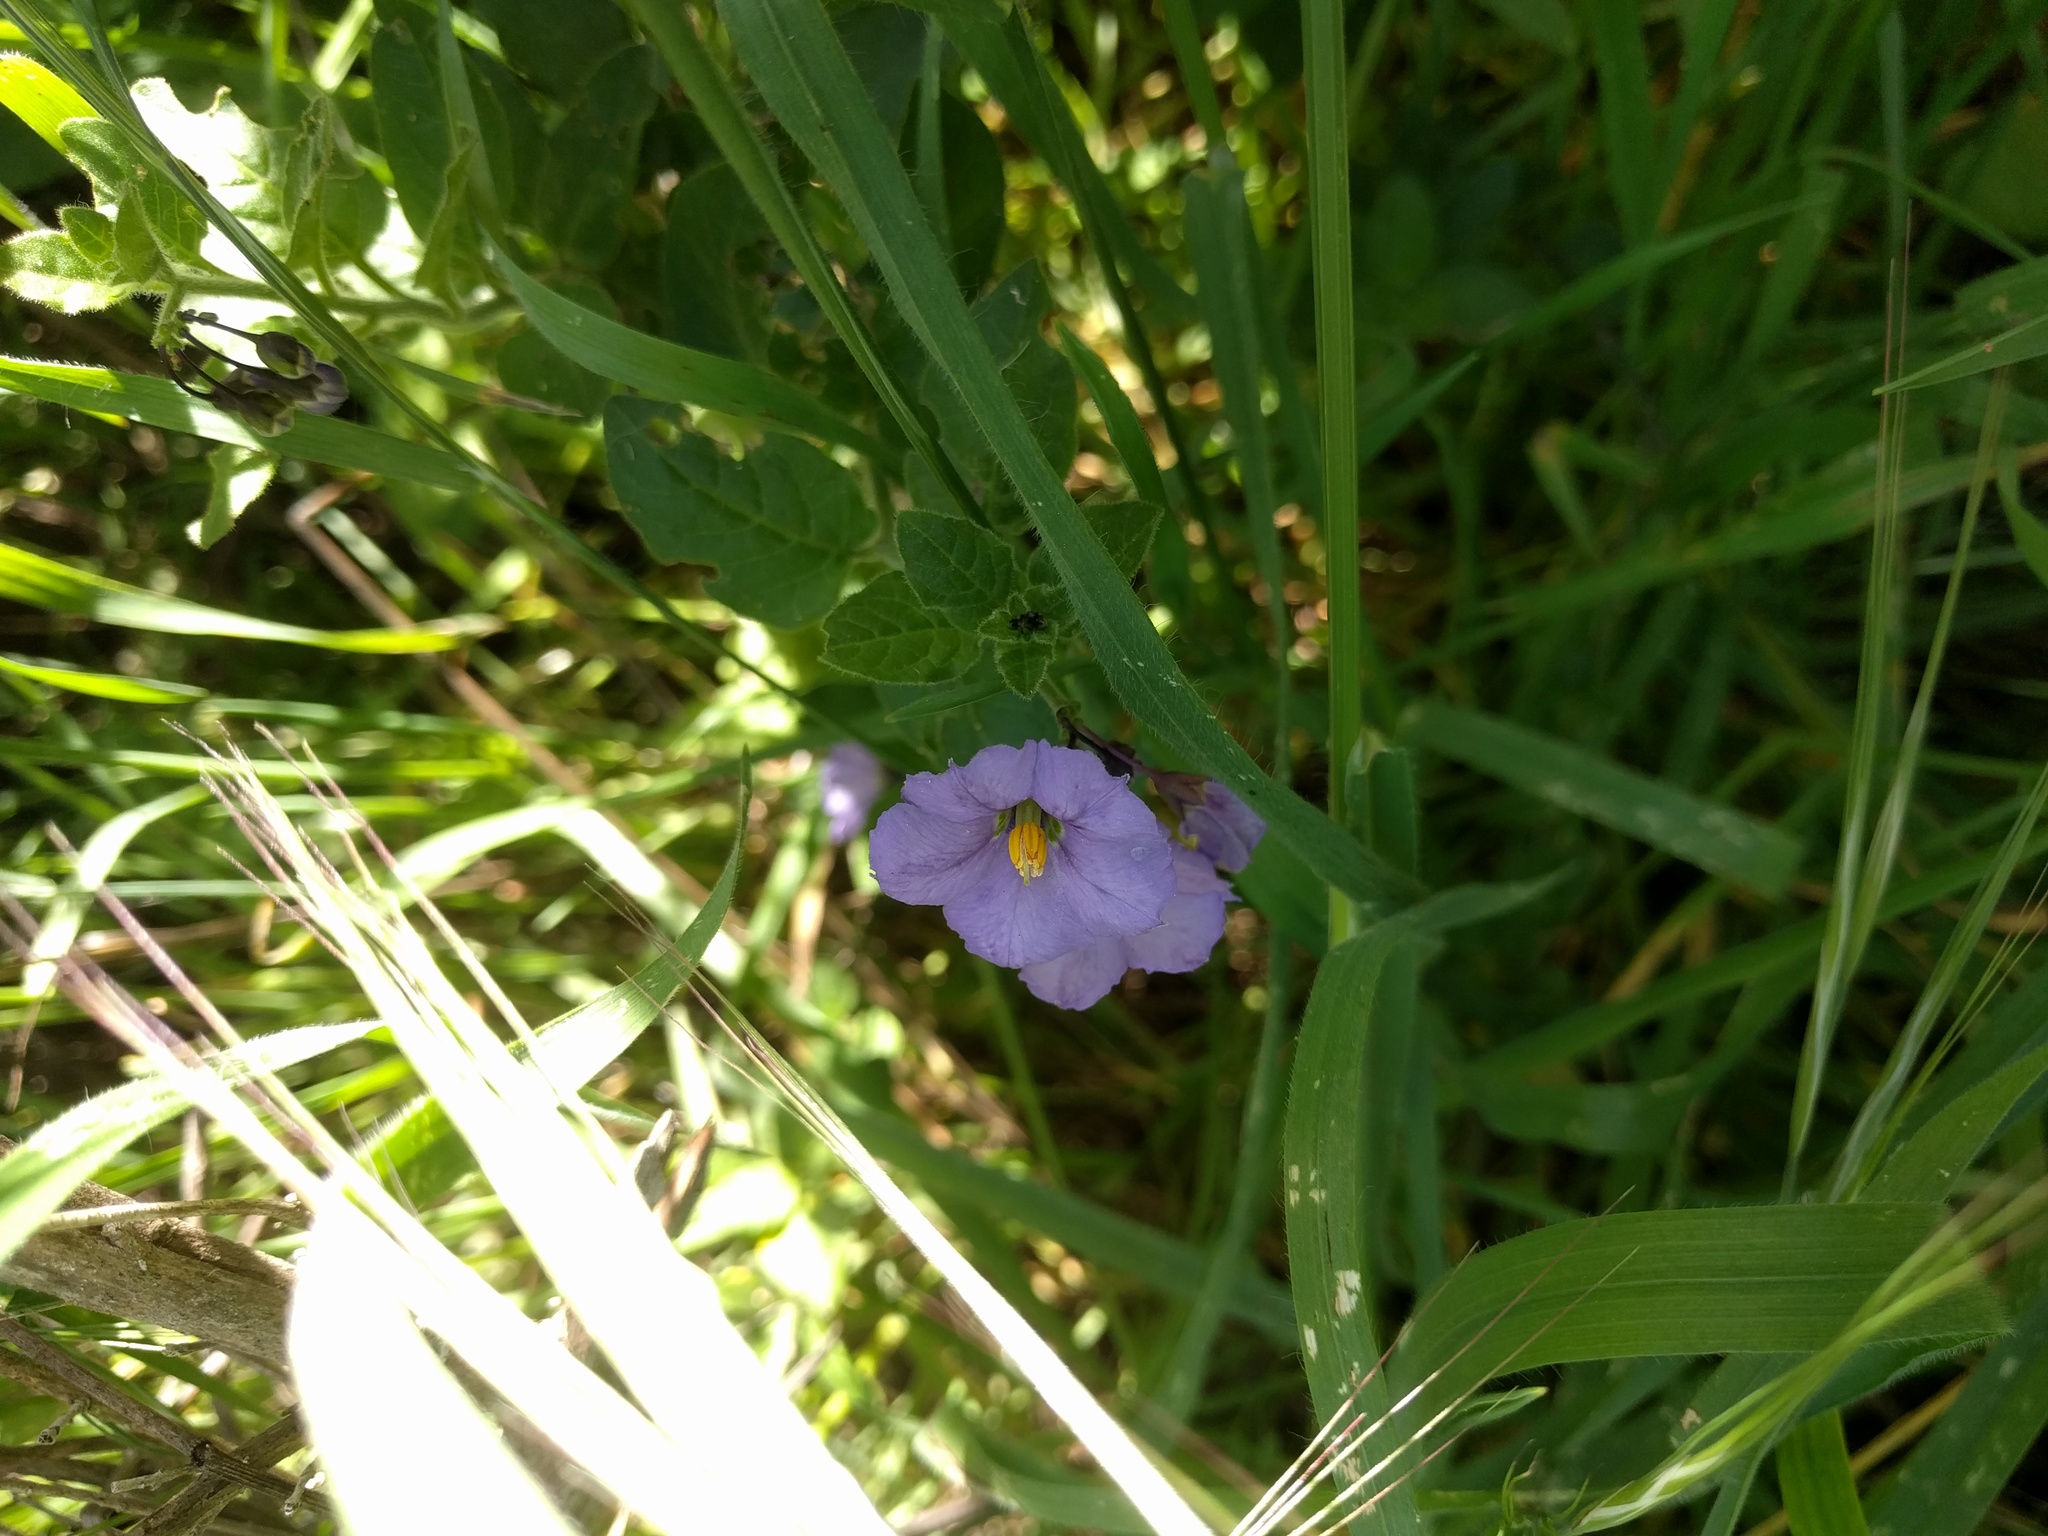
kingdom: Plantae
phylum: Tracheophyta
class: Magnoliopsida
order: Solanales
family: Solanaceae
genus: Solanum
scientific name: Solanum umbelliferum
